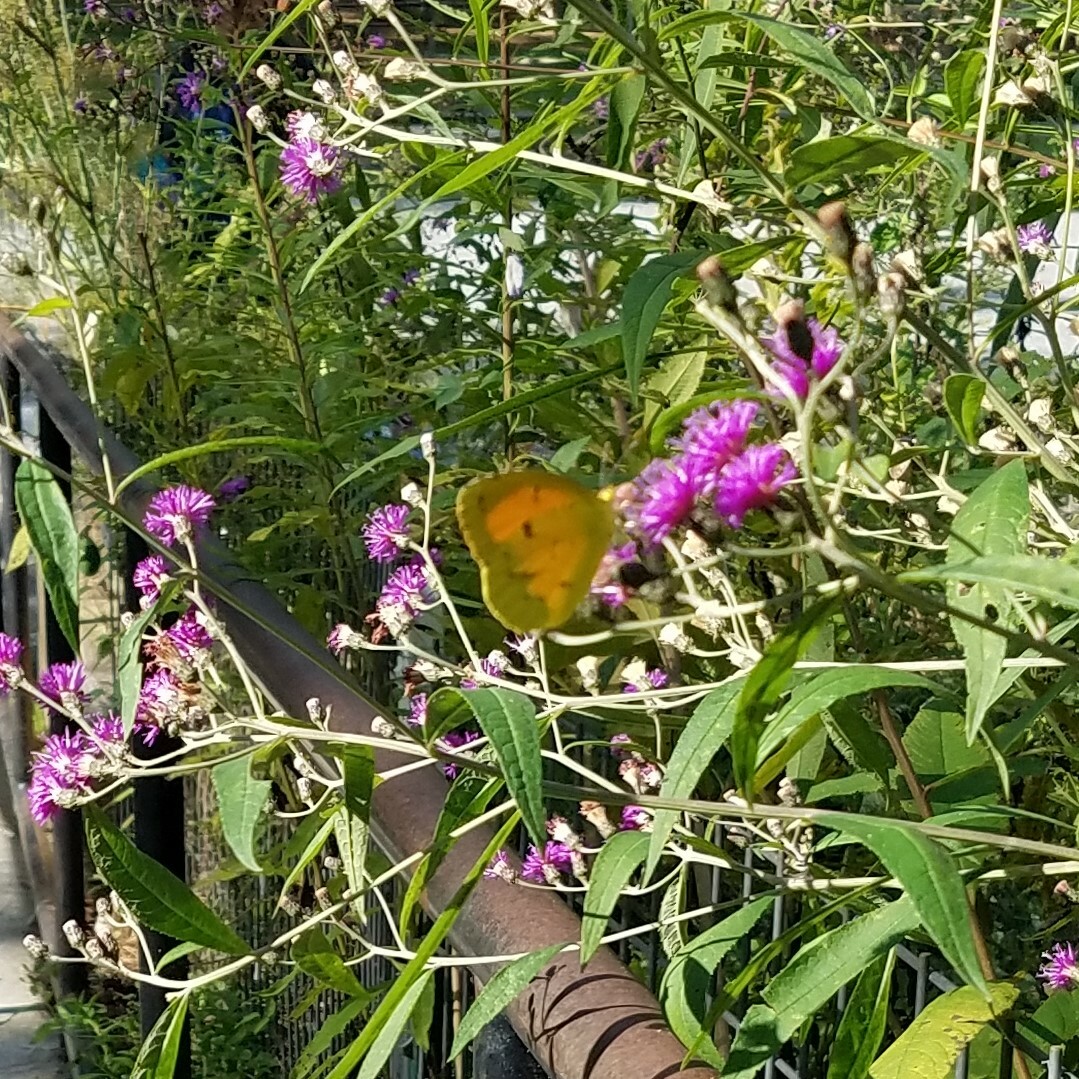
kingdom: Animalia
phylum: Arthropoda
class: Insecta
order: Lepidoptera
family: Pieridae
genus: Abaeis
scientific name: Abaeis nicippe
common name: Sleepy orange
